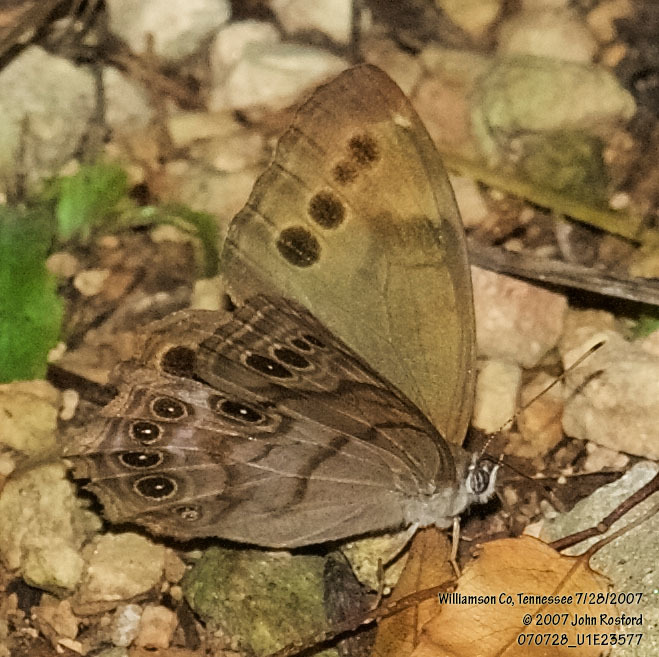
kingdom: Animalia
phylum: Arthropoda
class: Insecta
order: Lepidoptera
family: Nymphalidae
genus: Lethe
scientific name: Lethe anthedon
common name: Northern pearly-eye
